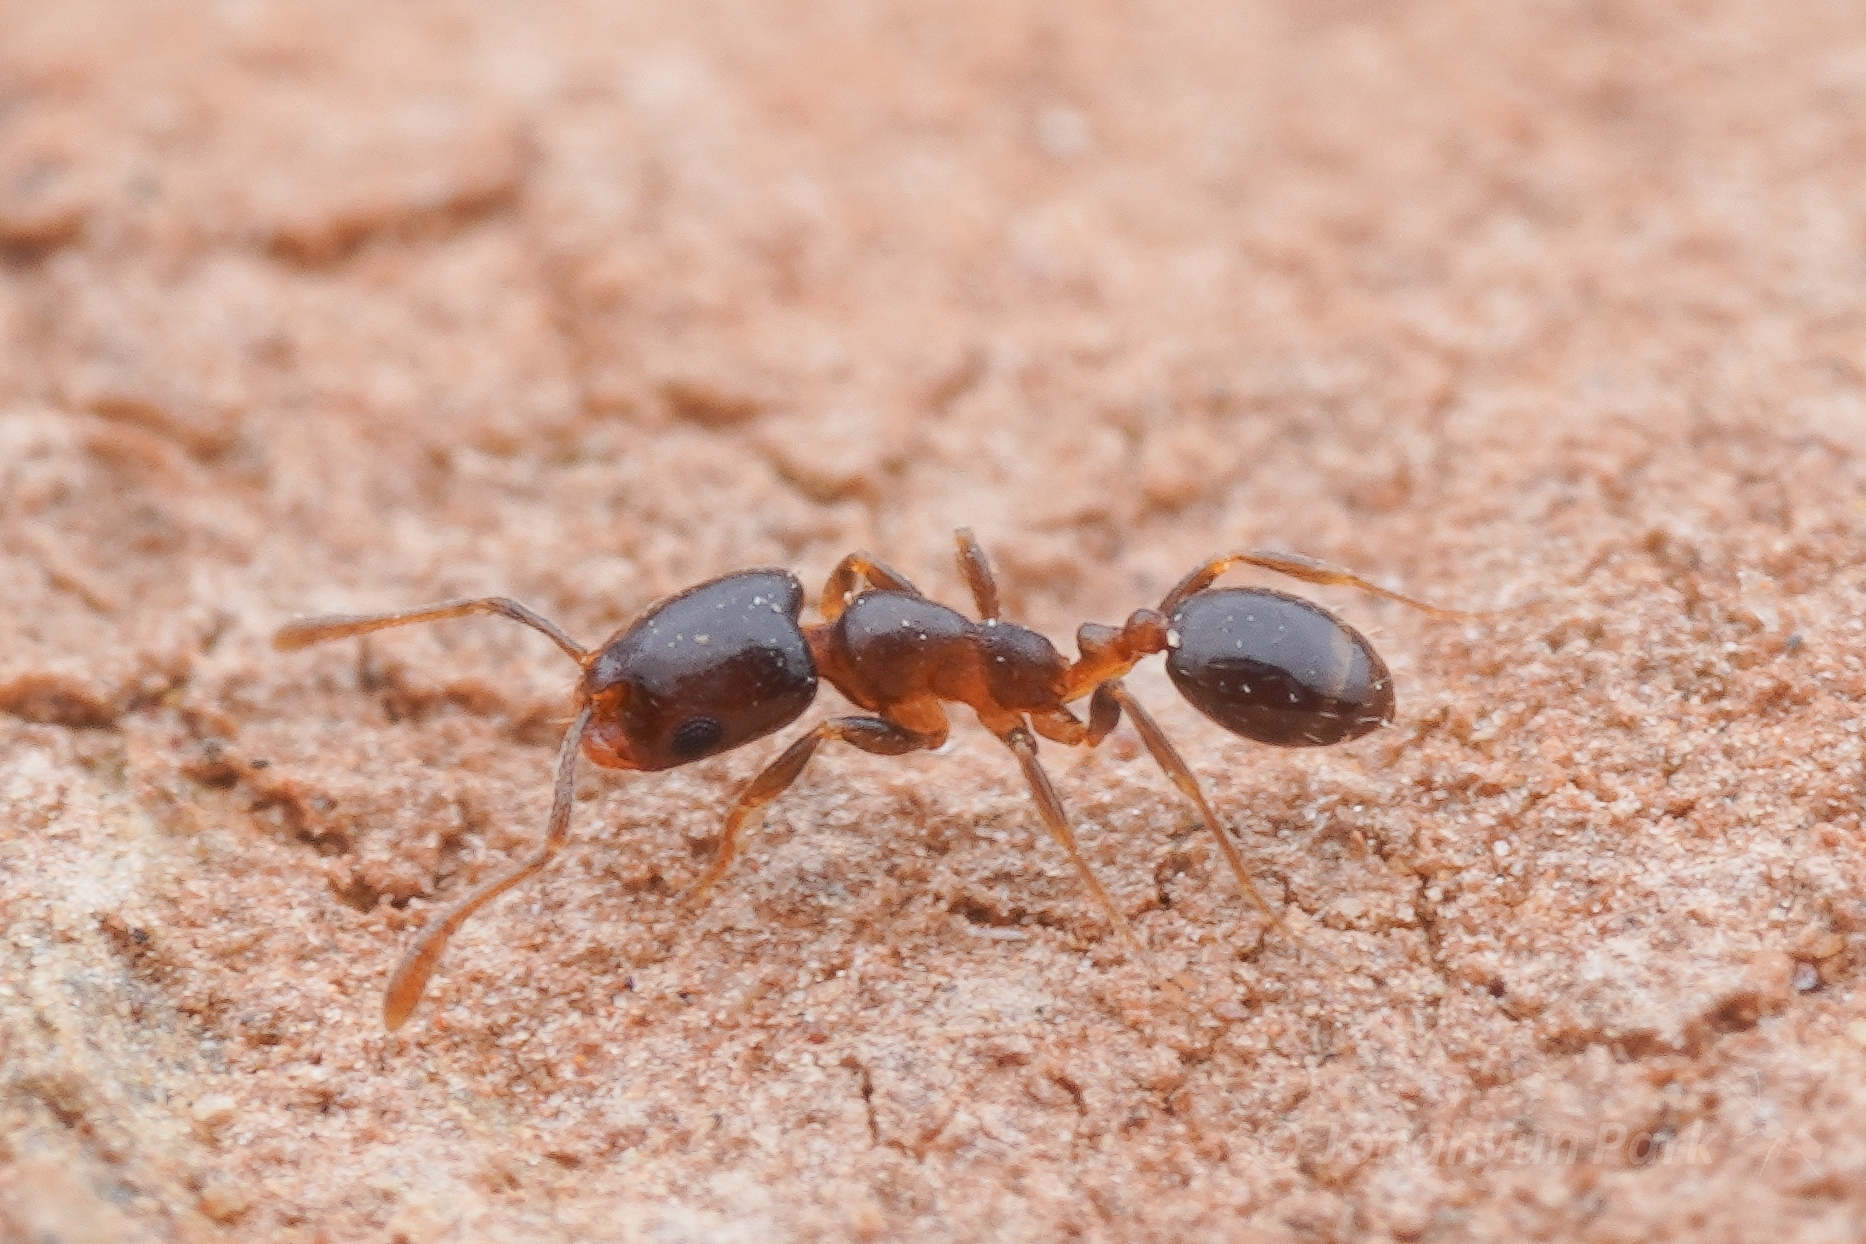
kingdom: Animalia
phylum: Arthropoda
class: Insecta
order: Hymenoptera
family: Formicidae
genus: Monomorium
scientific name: Monomorium macrops
